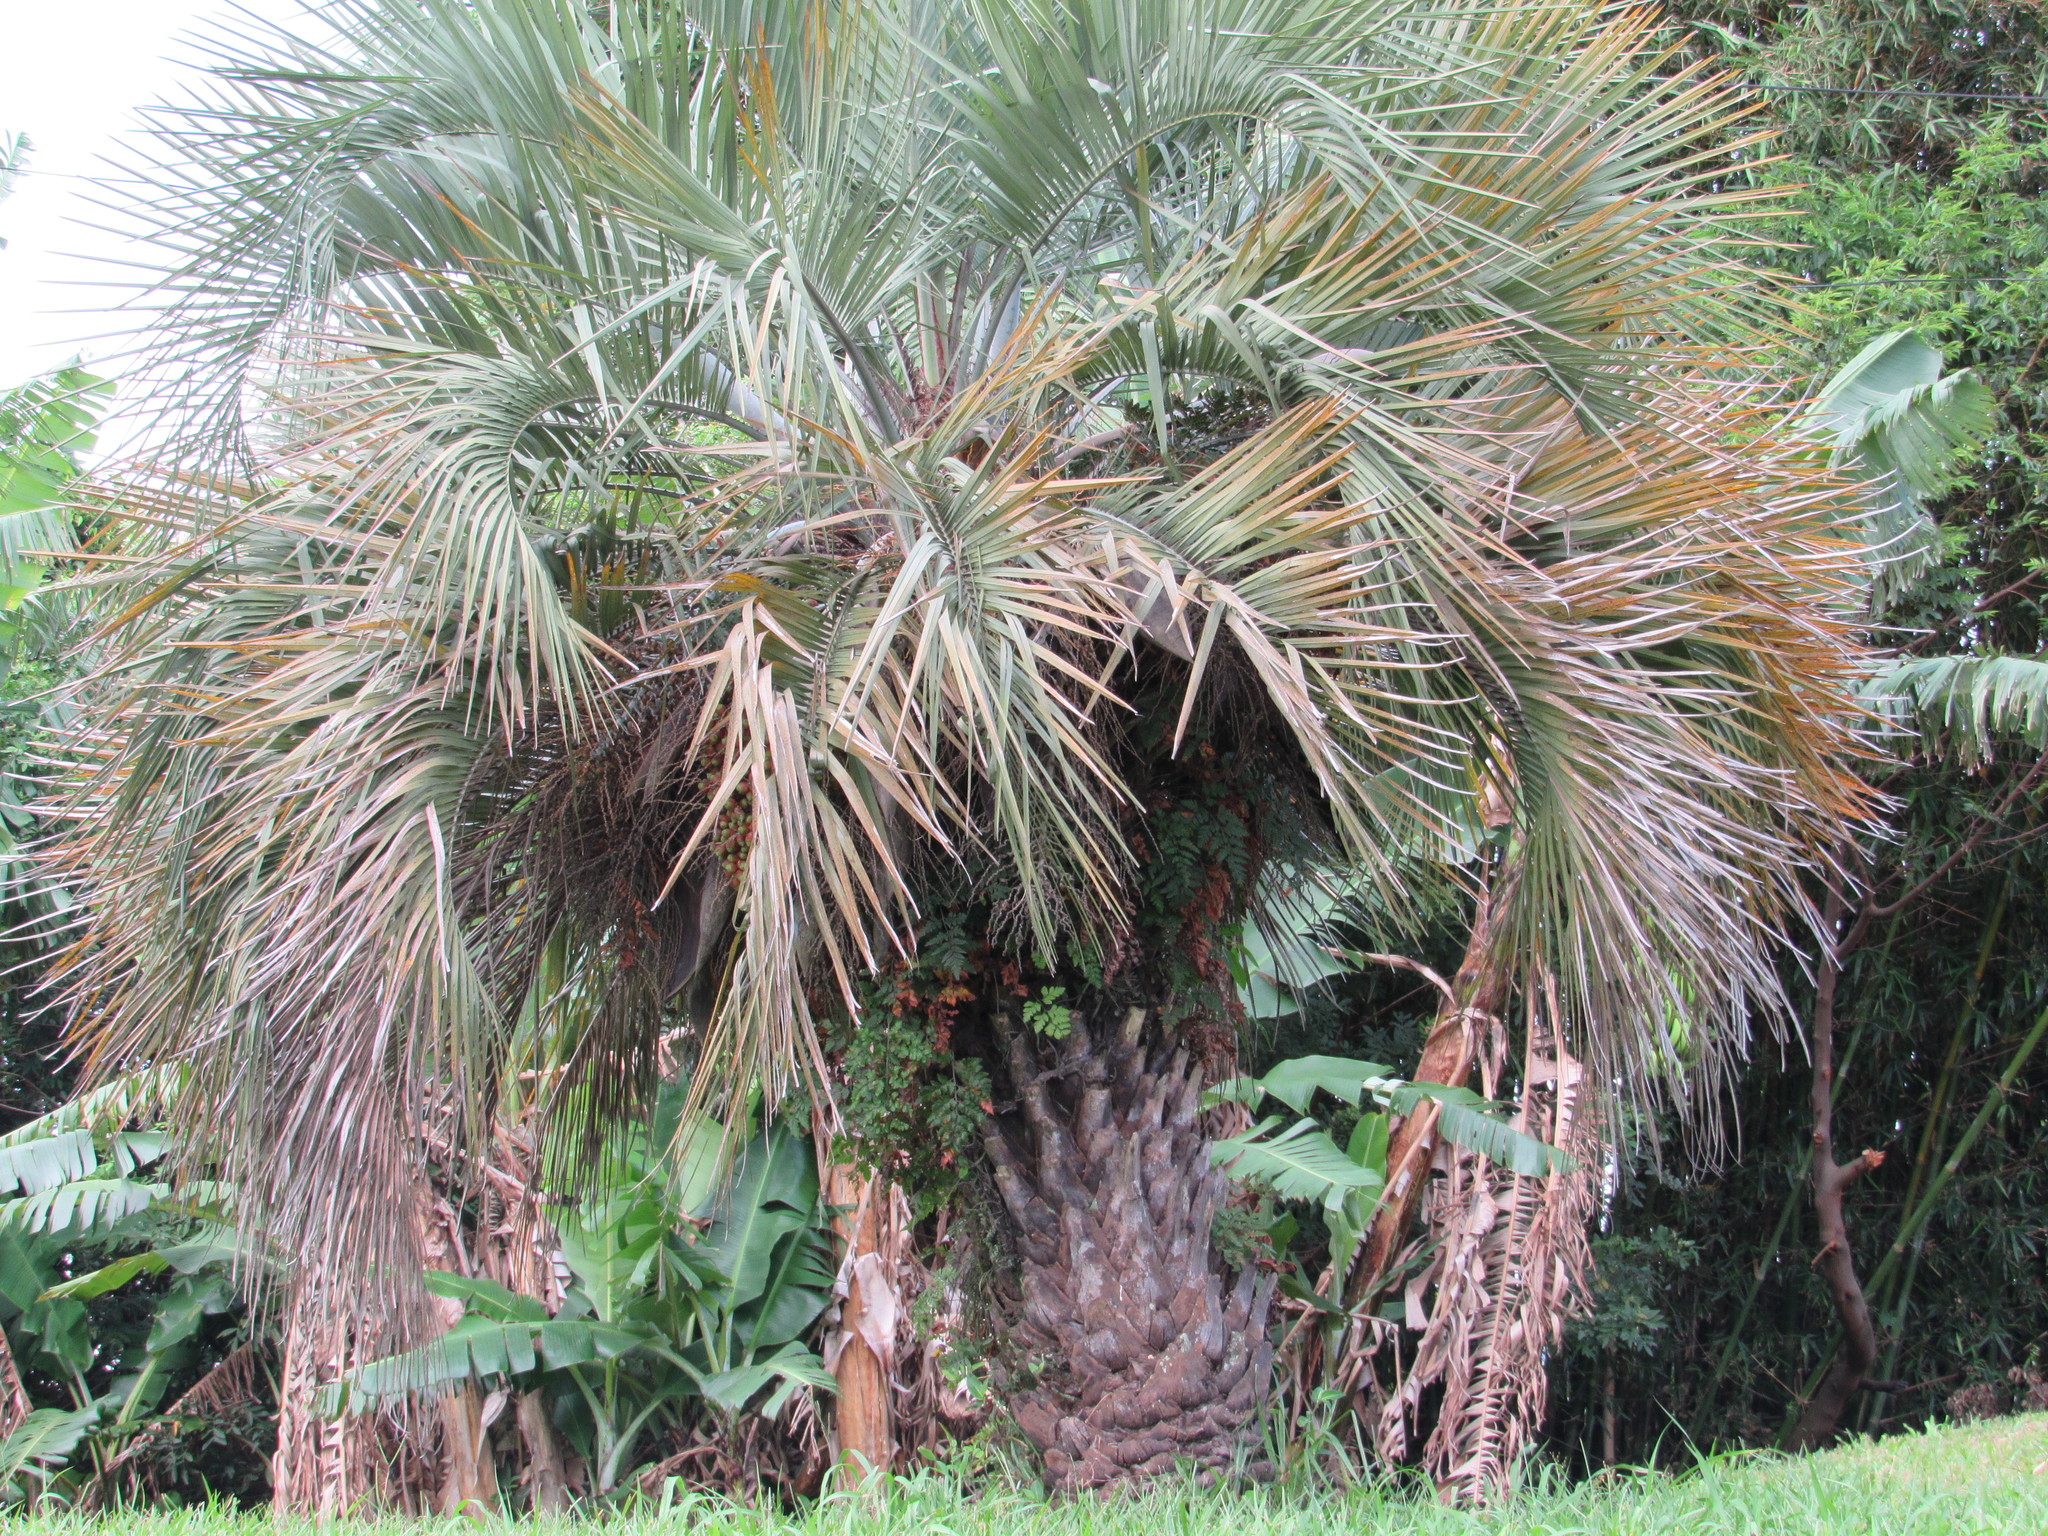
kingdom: Plantae
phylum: Tracheophyta
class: Liliopsida
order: Arecales
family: Arecaceae
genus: Butia
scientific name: Butia catarinensis
